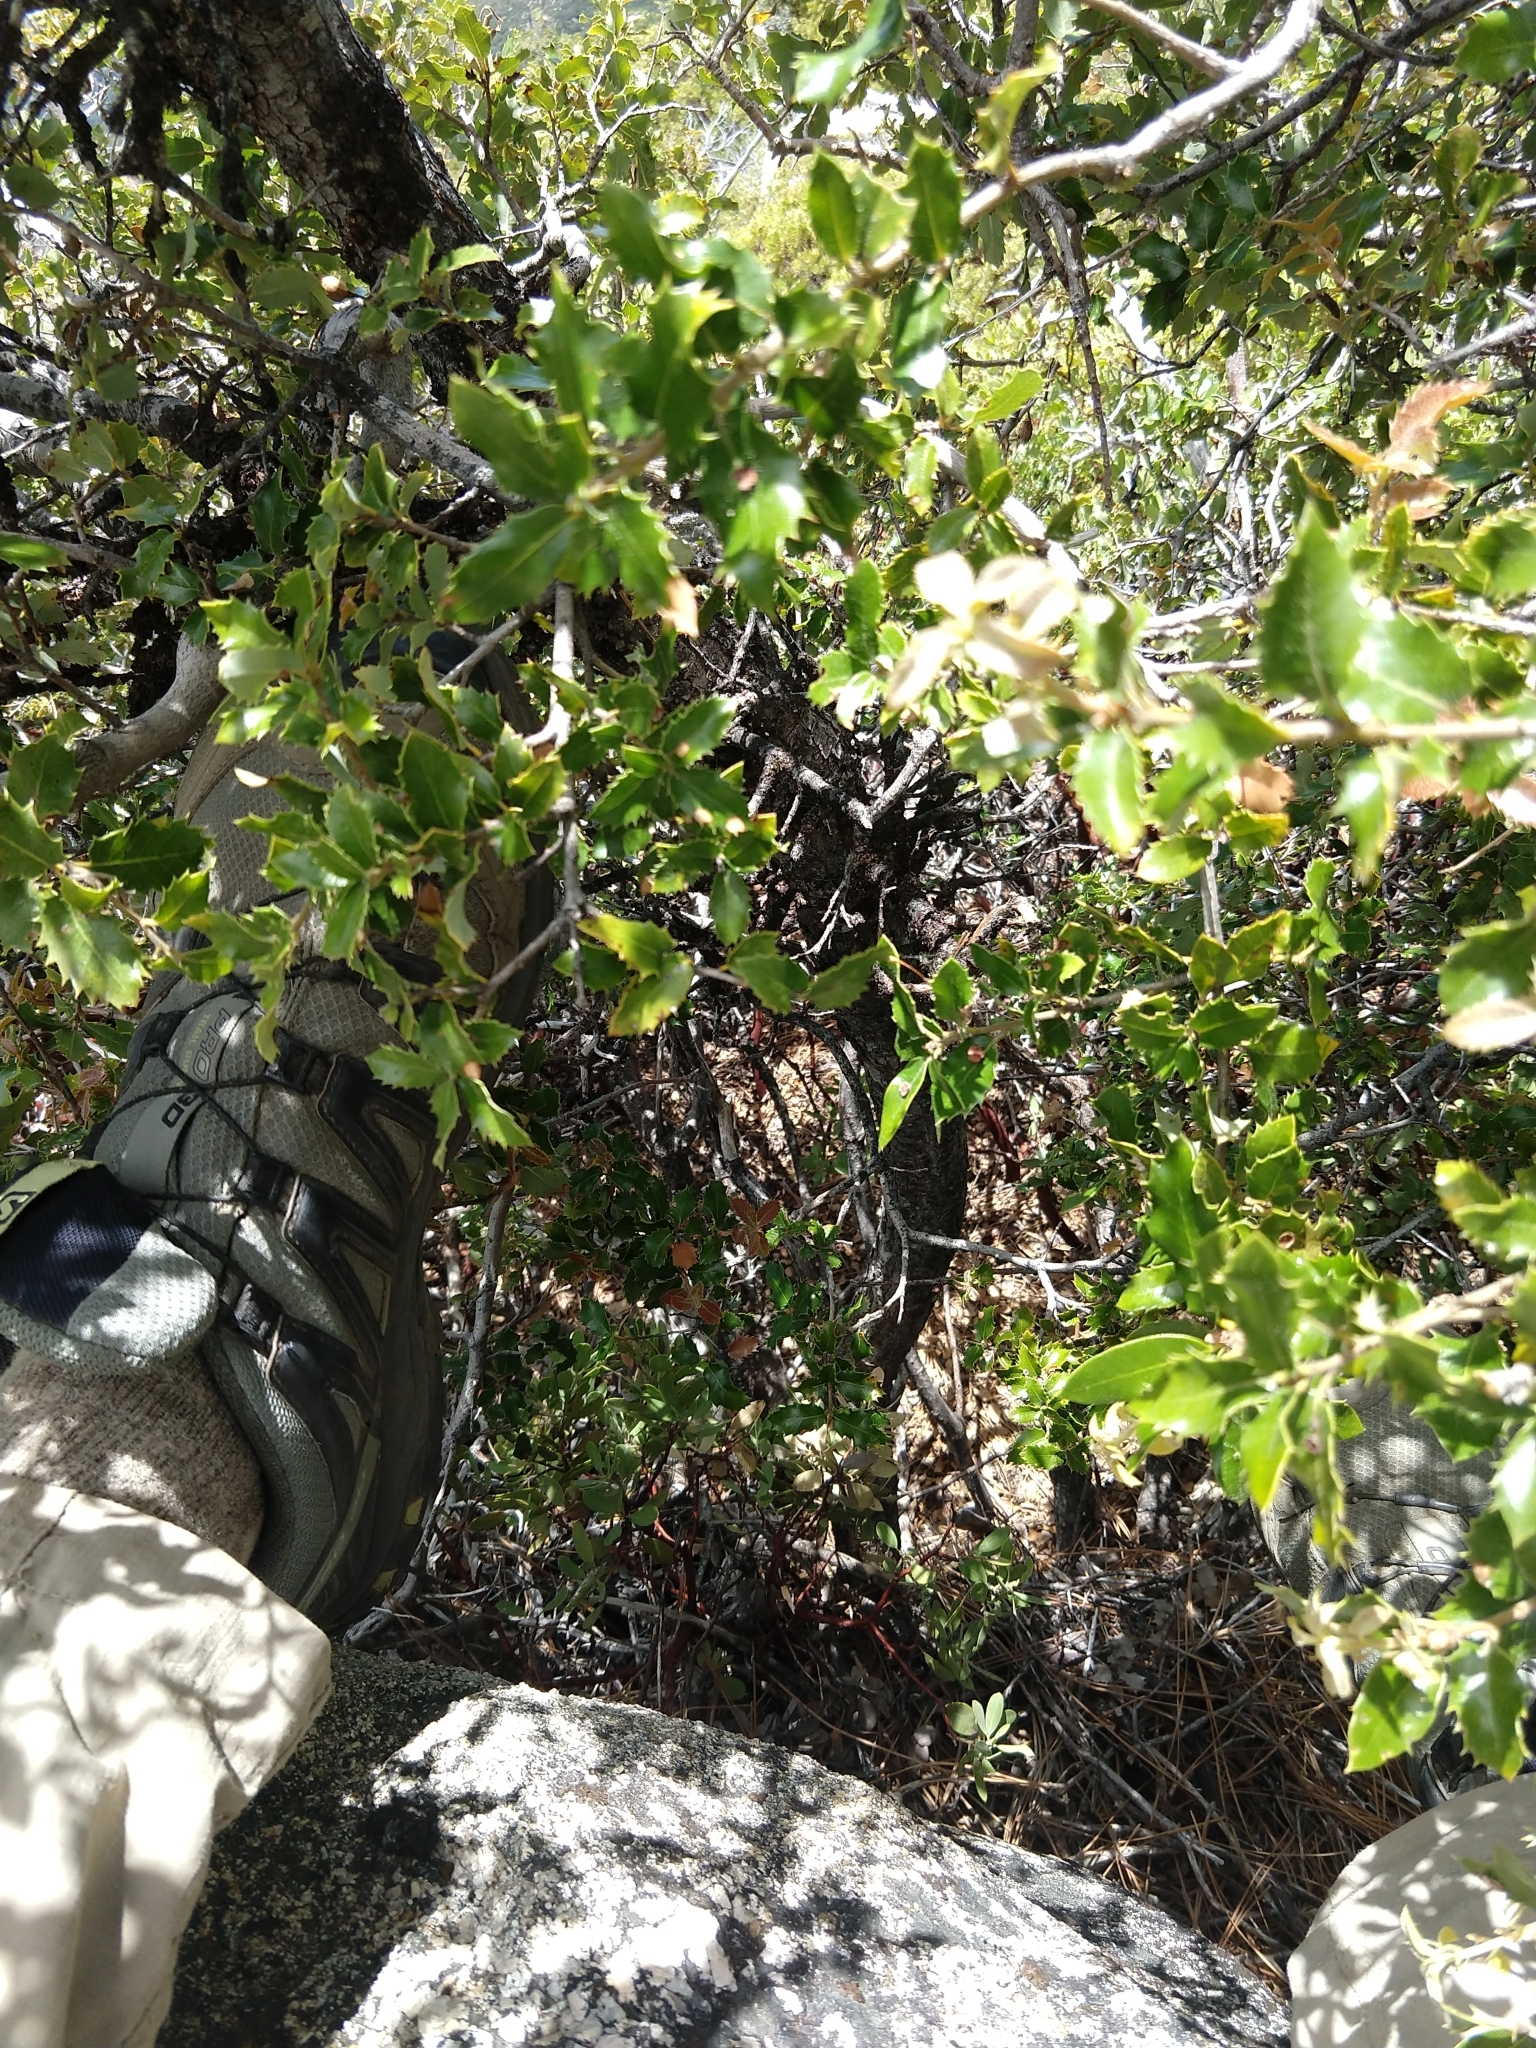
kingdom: Plantae
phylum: Tracheophyta
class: Magnoliopsida
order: Fagales
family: Fagaceae
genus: Quercus
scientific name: Quercus chrysolepis
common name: Canyon live oak
